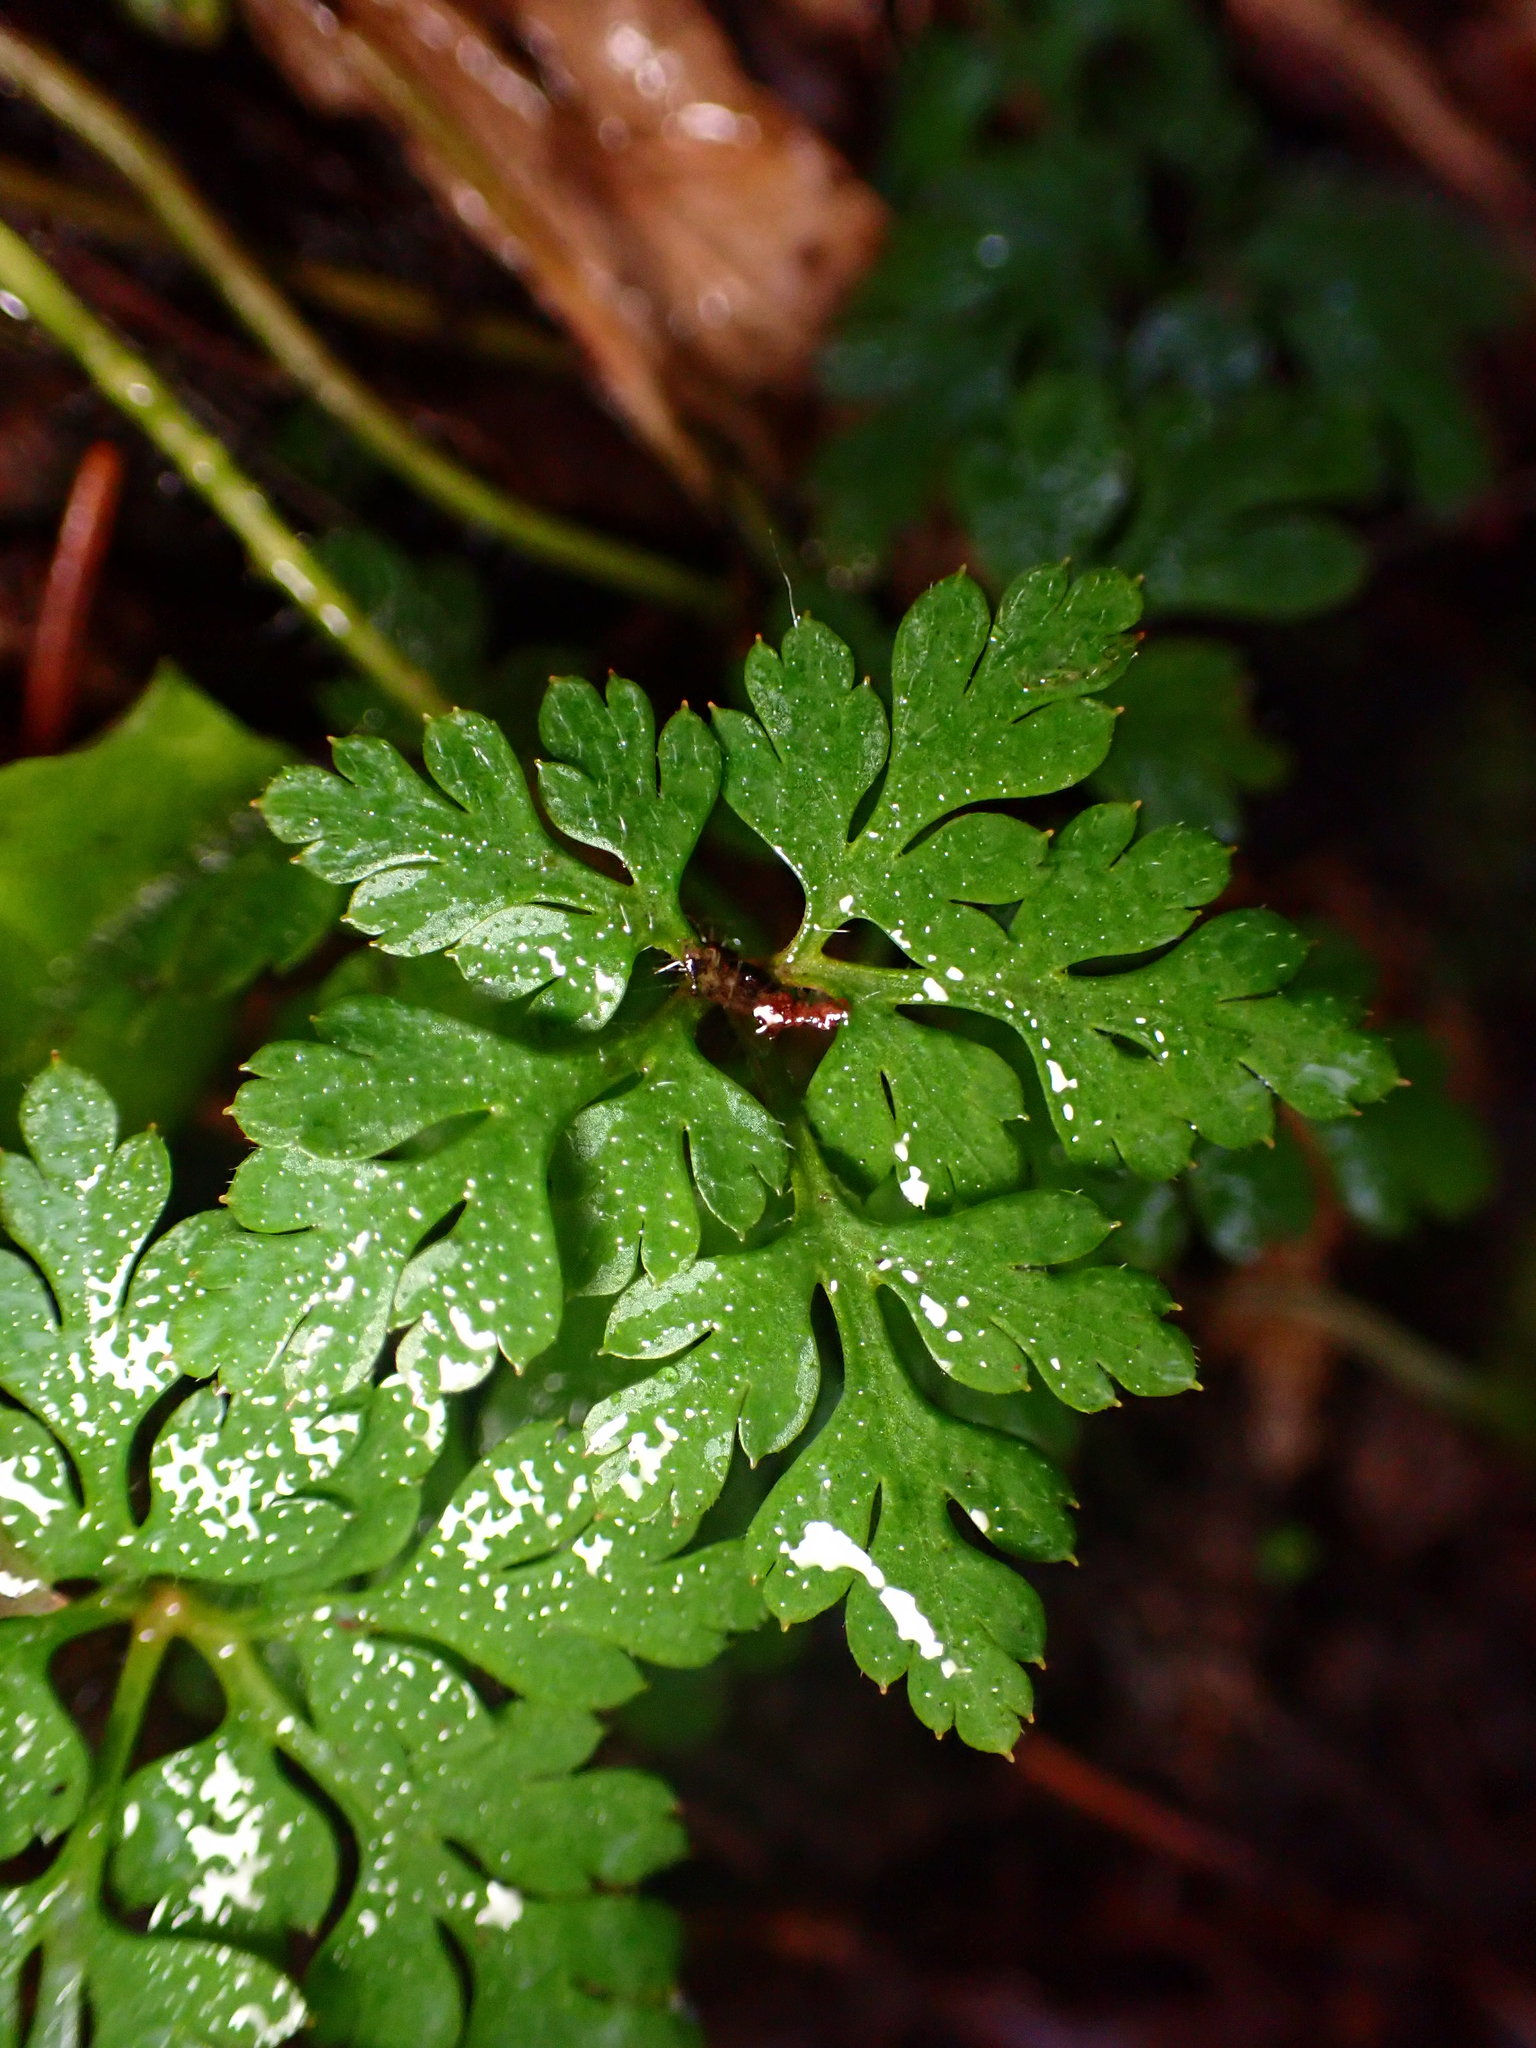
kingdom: Plantae
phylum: Tracheophyta
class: Magnoliopsida
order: Geraniales
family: Geraniaceae
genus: Geranium
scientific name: Geranium robertianum
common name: Herb-robert
